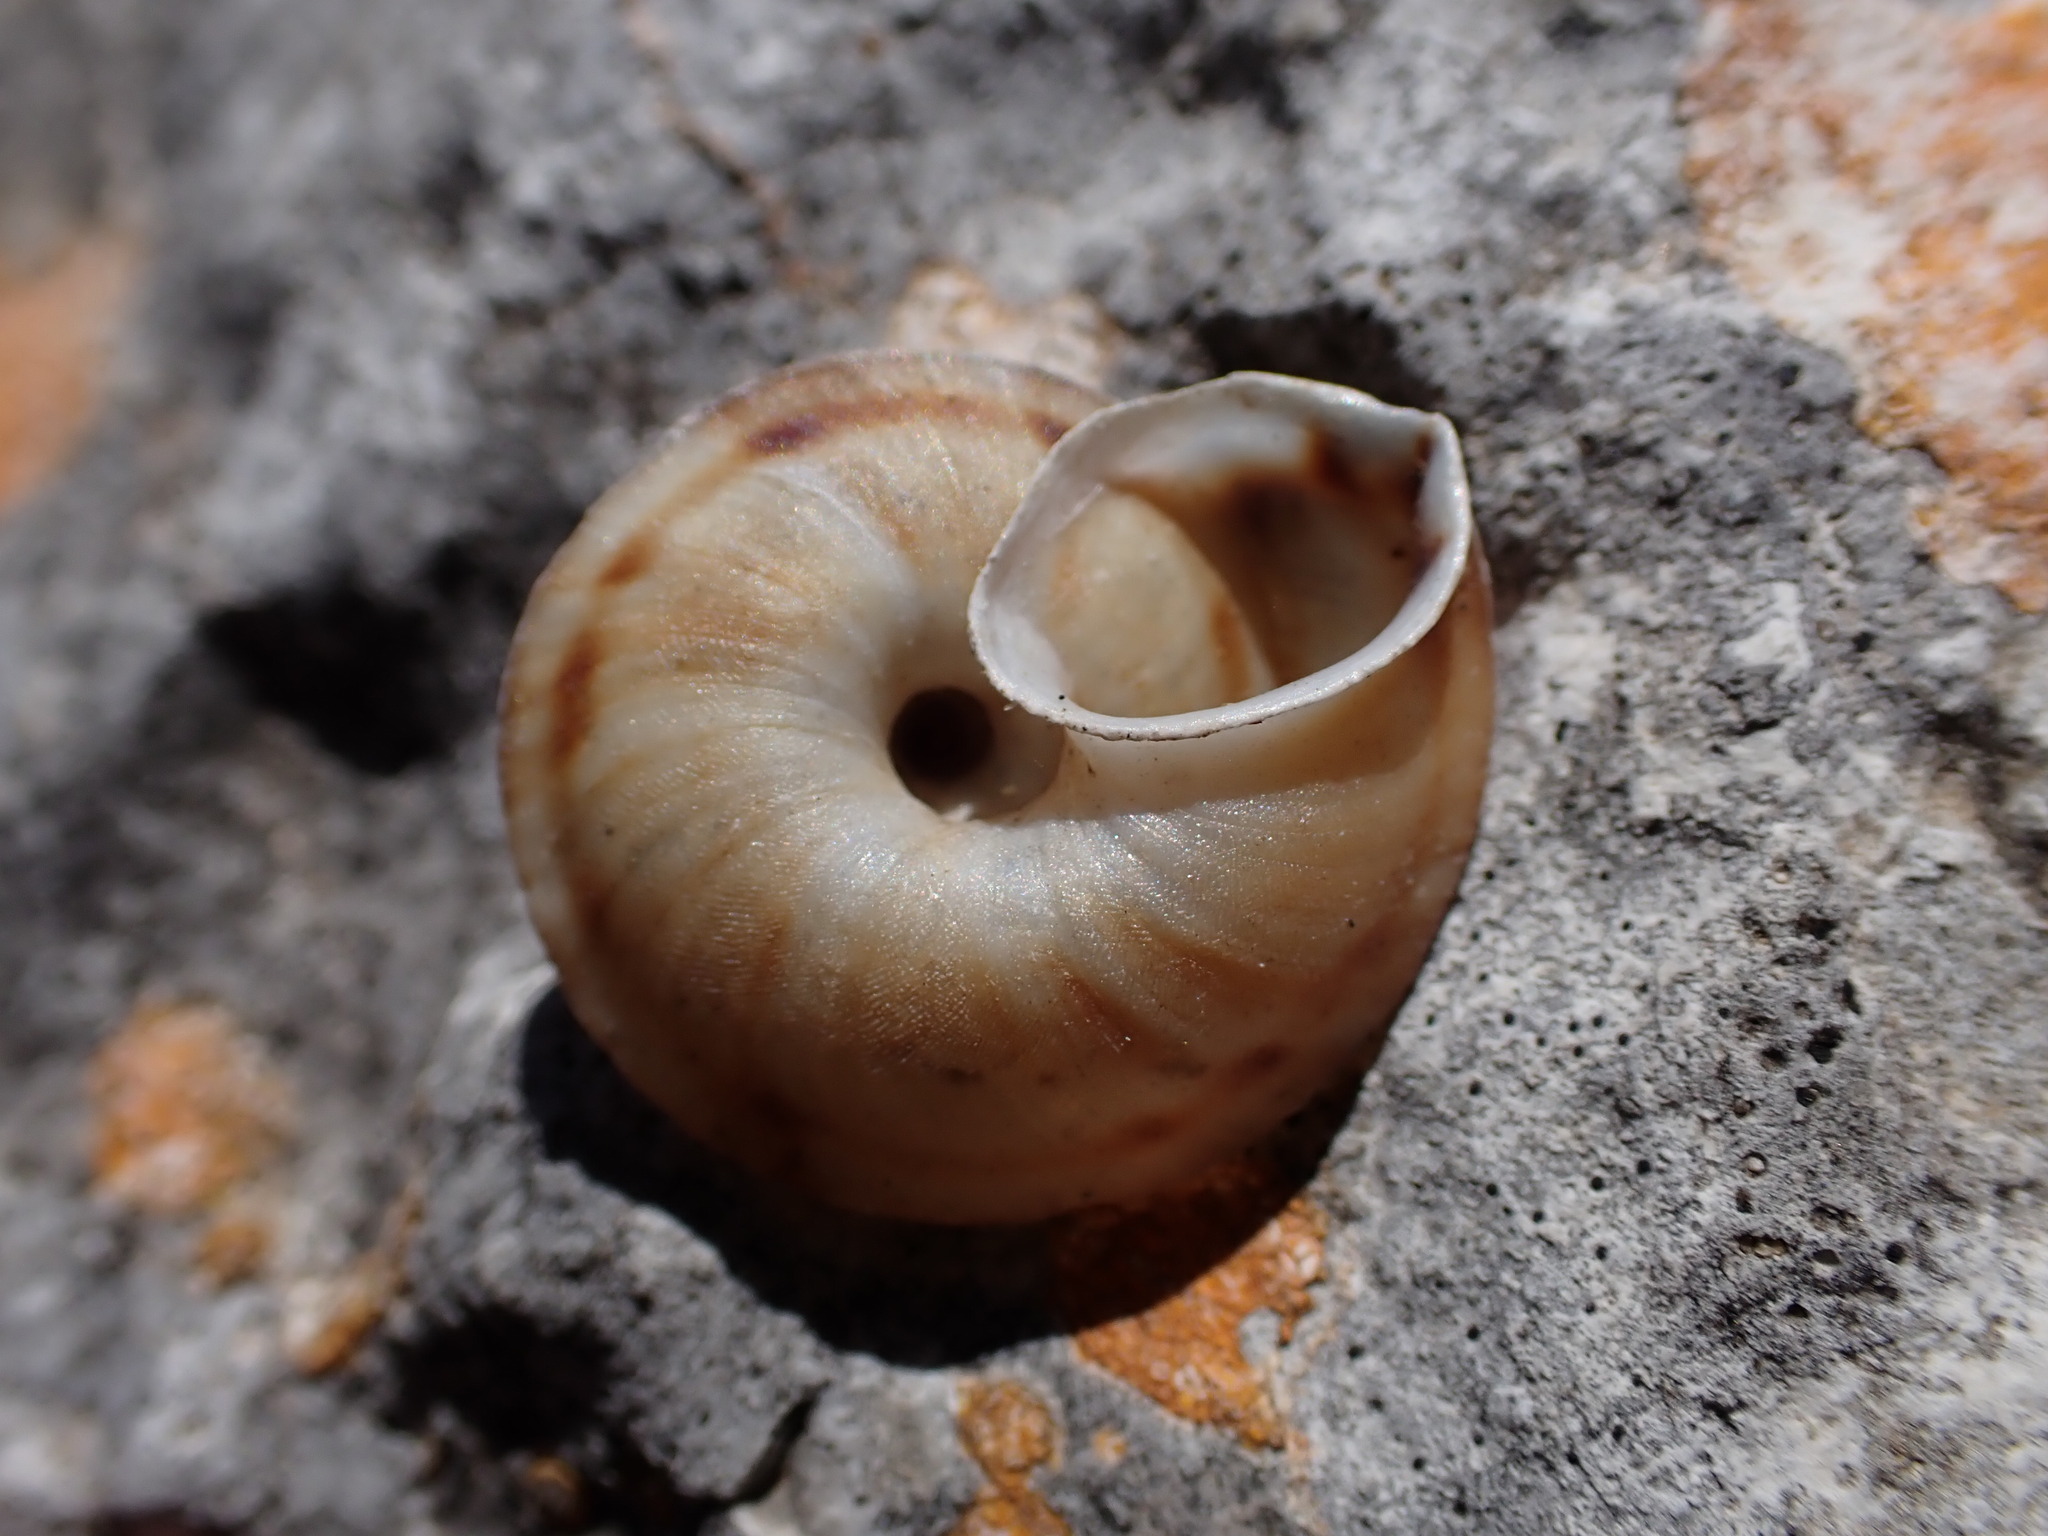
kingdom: Animalia
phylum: Mollusca
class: Gastropoda
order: Stylommatophora
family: Helicidae
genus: Helicigona
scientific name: Helicigona lapicida
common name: Lapidary snail
